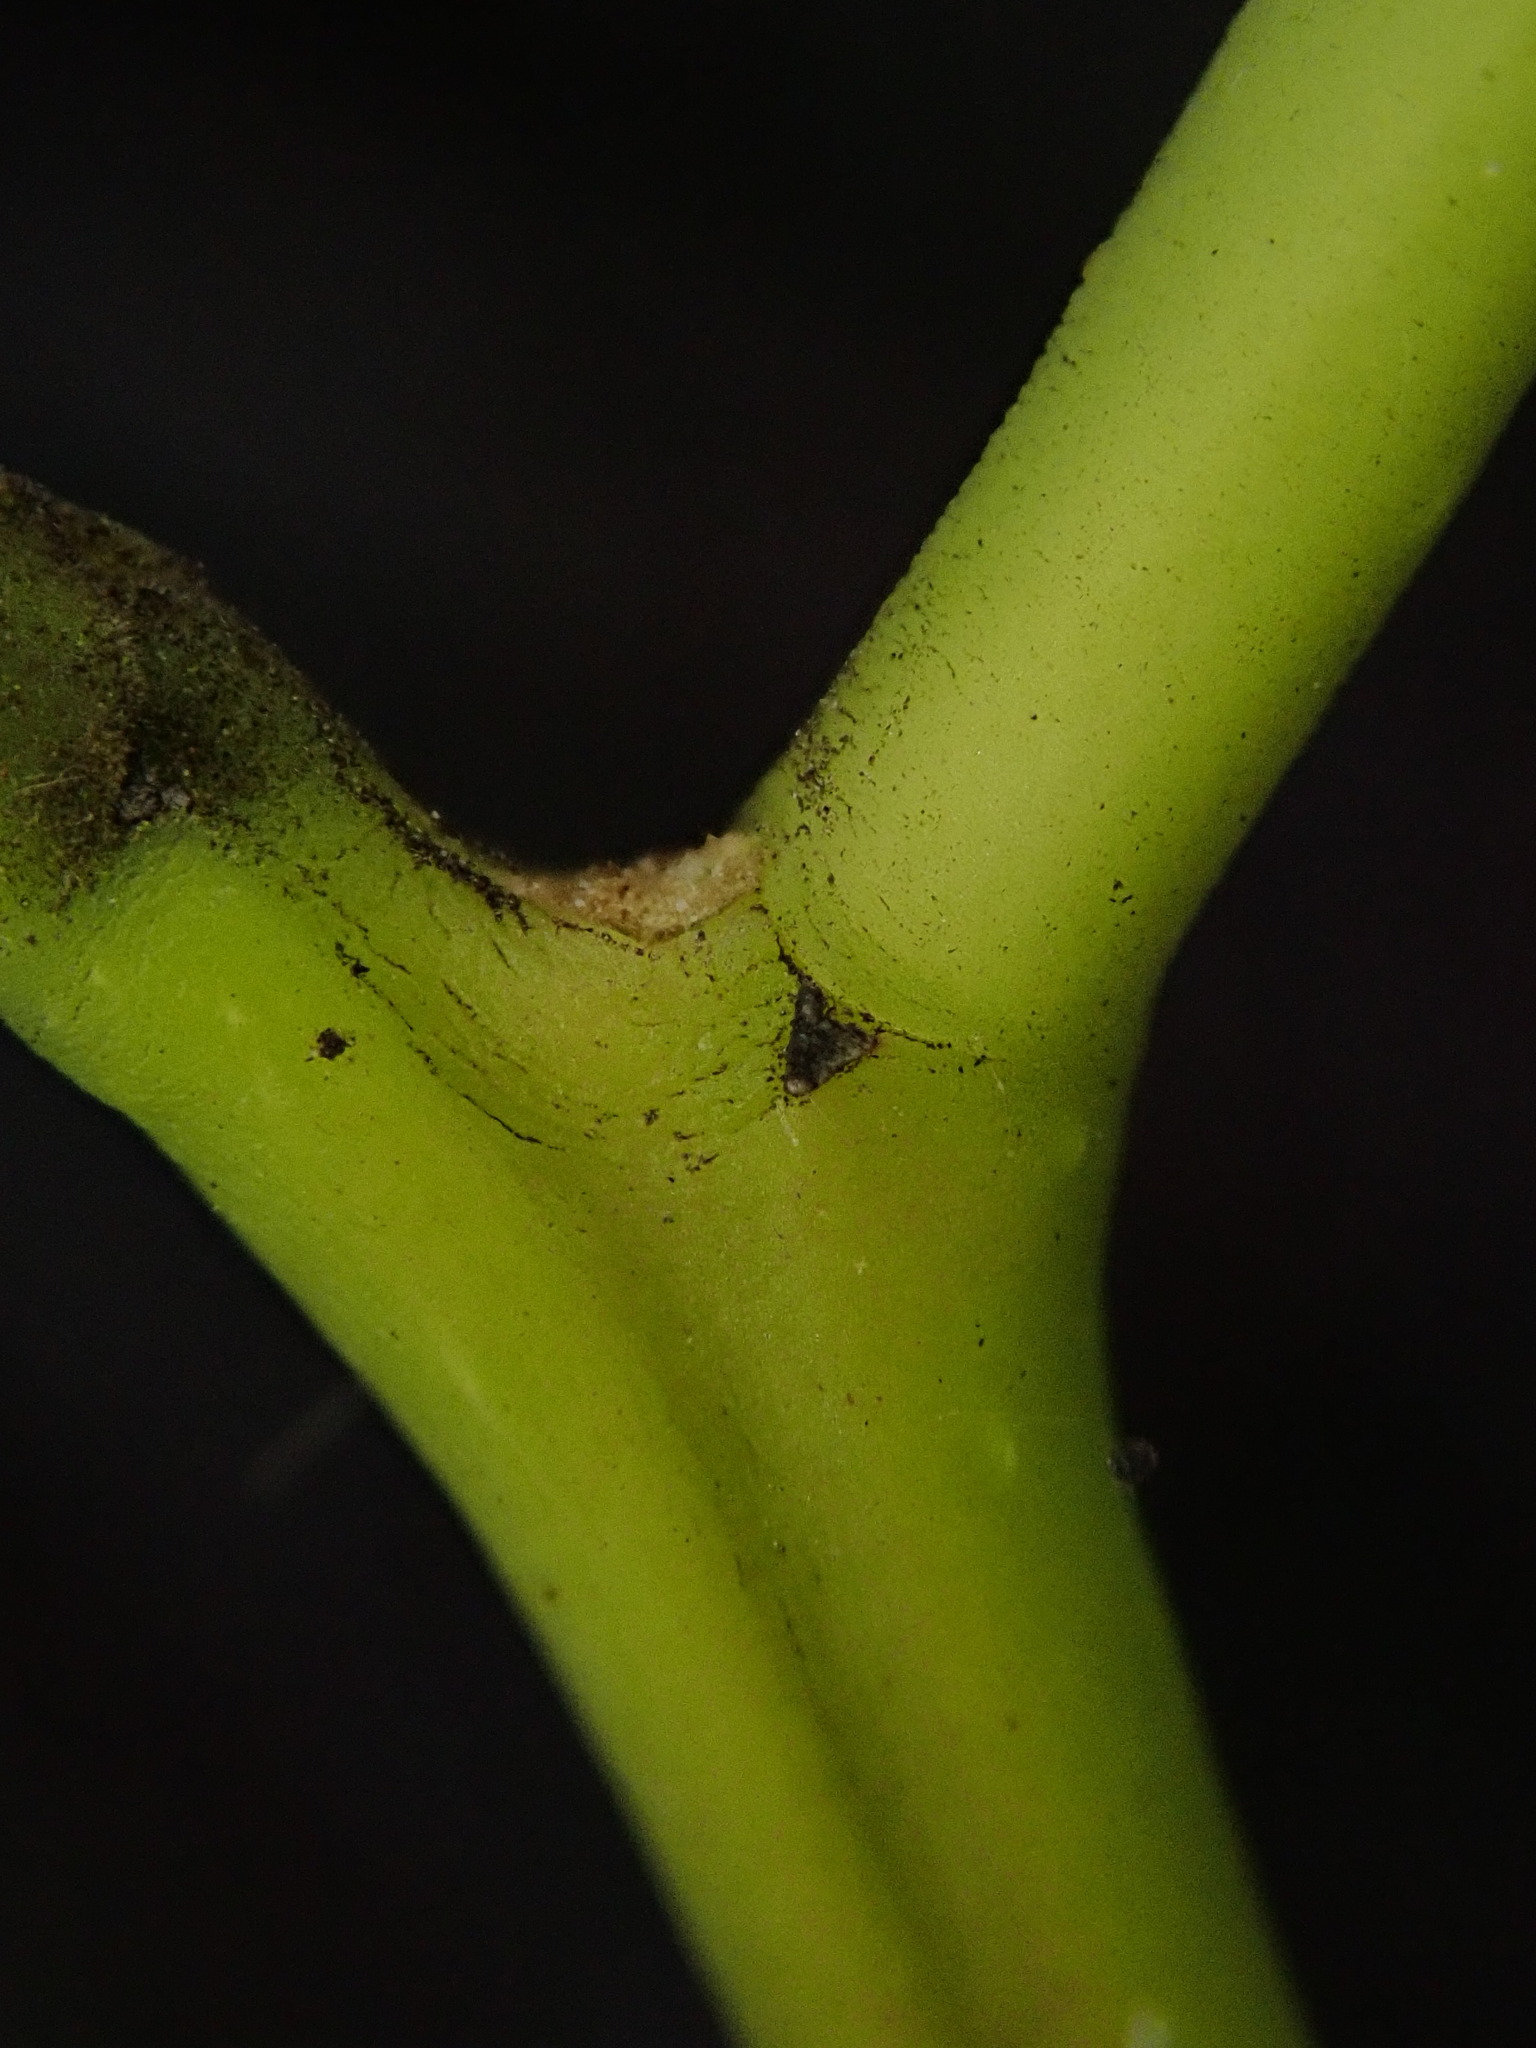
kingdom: Plantae
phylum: Tracheophyta
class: Magnoliopsida
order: Aquifoliales
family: Aquifoliaceae
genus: Ilex
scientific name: Ilex aquifolium
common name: English holly
